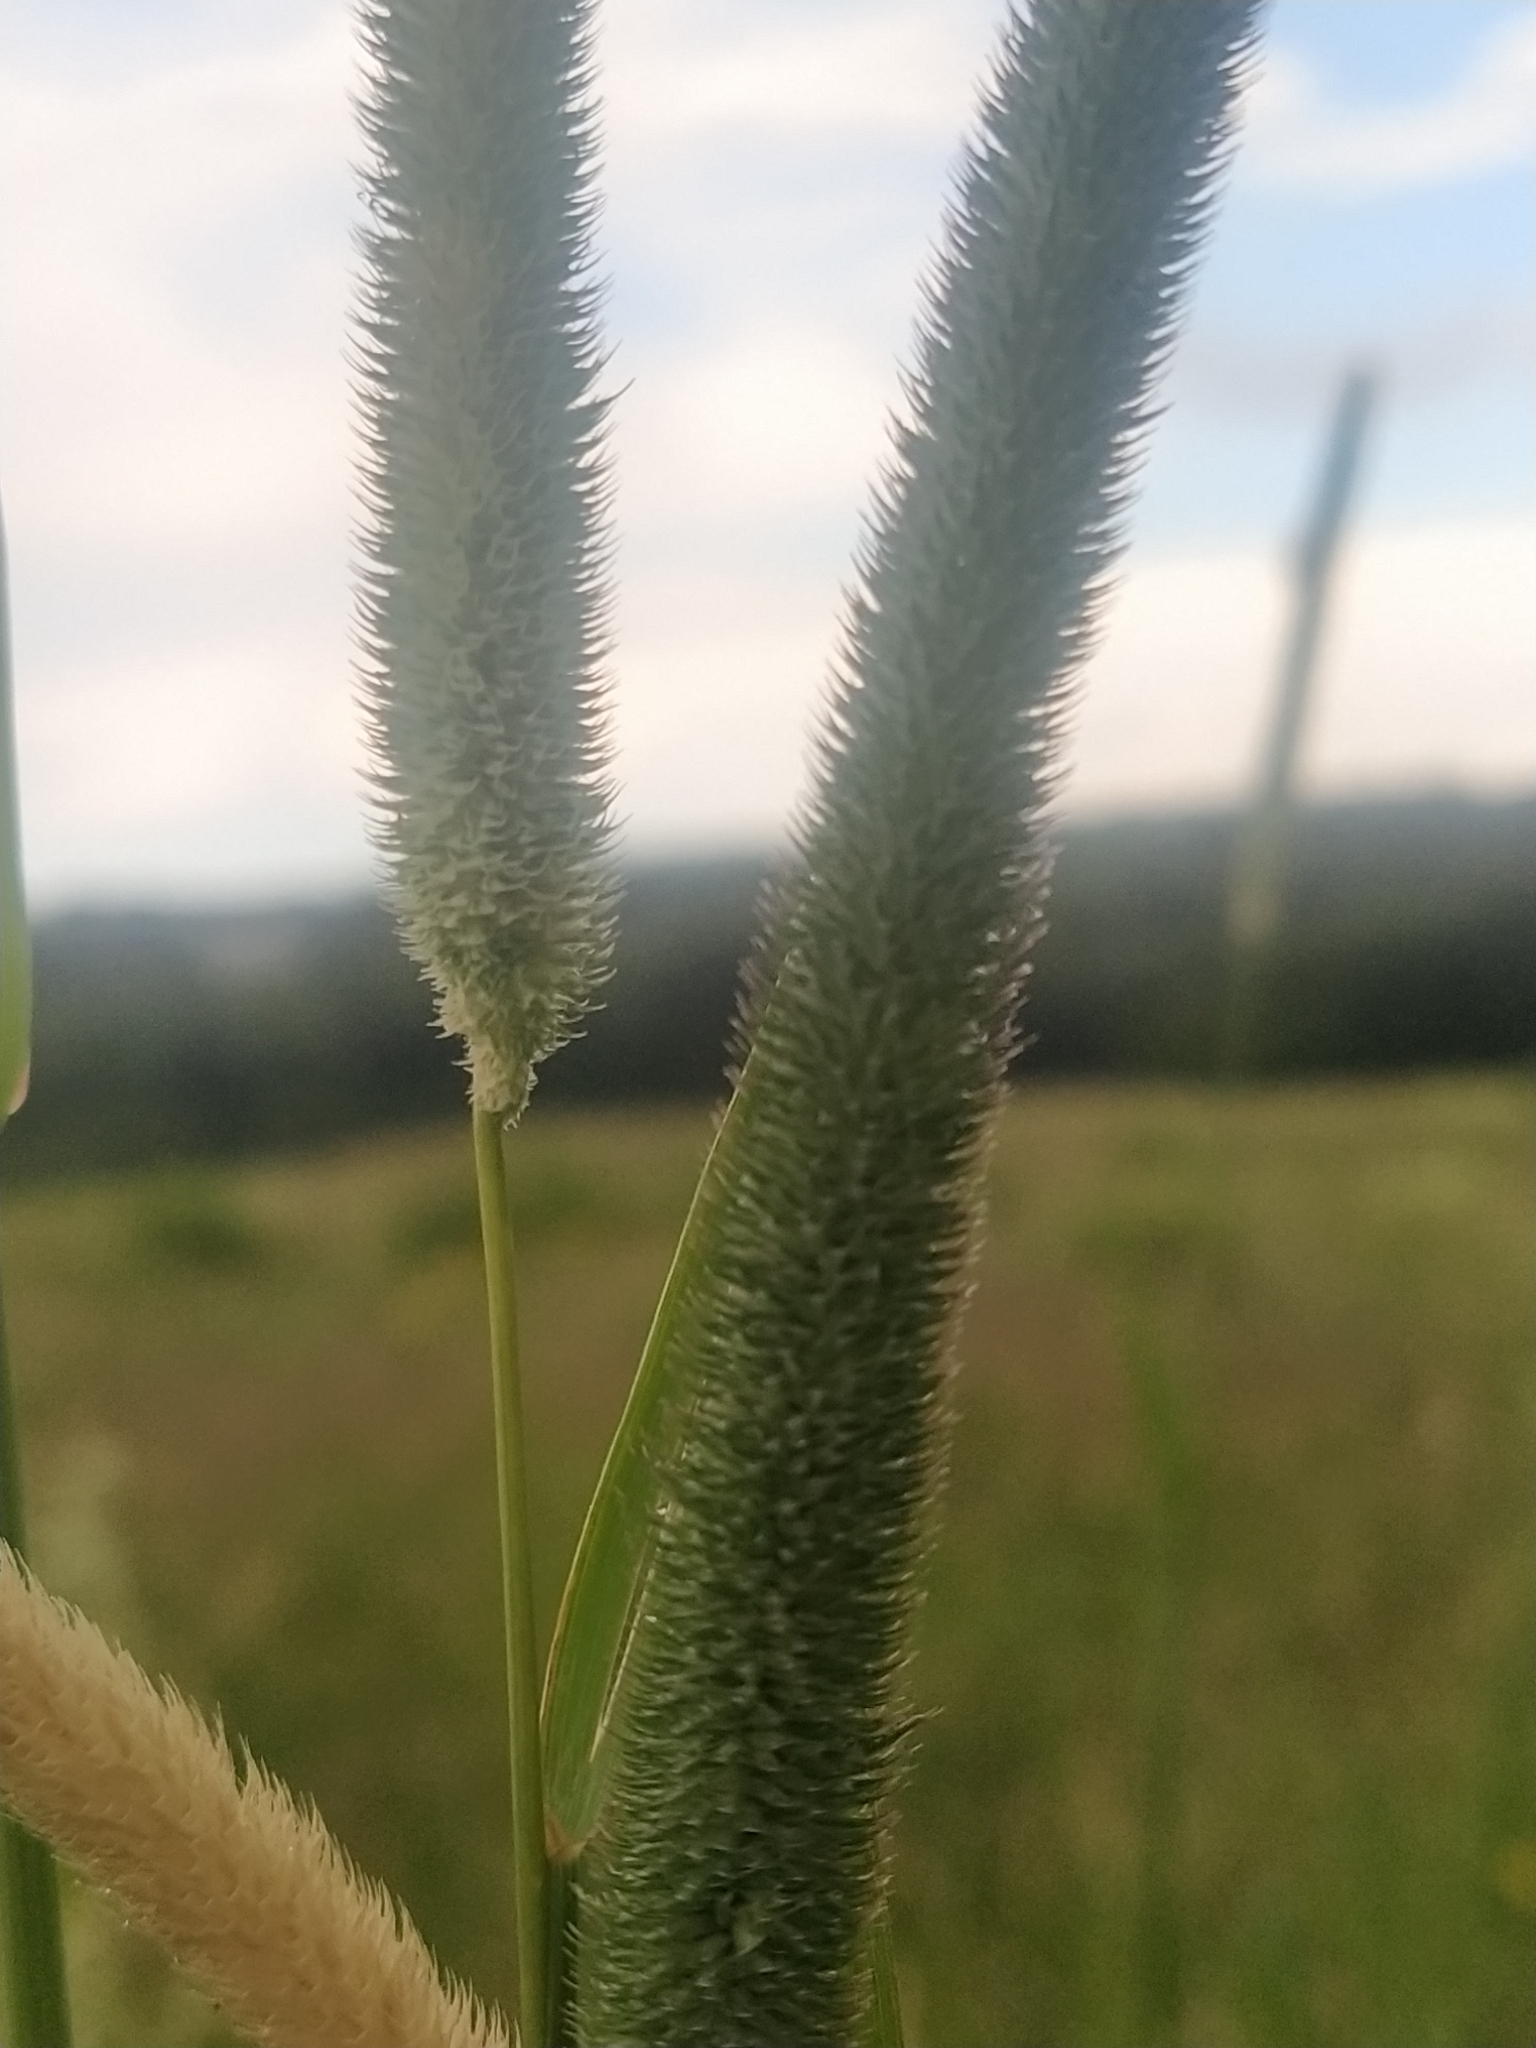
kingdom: Plantae
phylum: Tracheophyta
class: Liliopsida
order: Poales
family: Poaceae
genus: Phleum
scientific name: Phleum pratense
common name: Timothy grass
